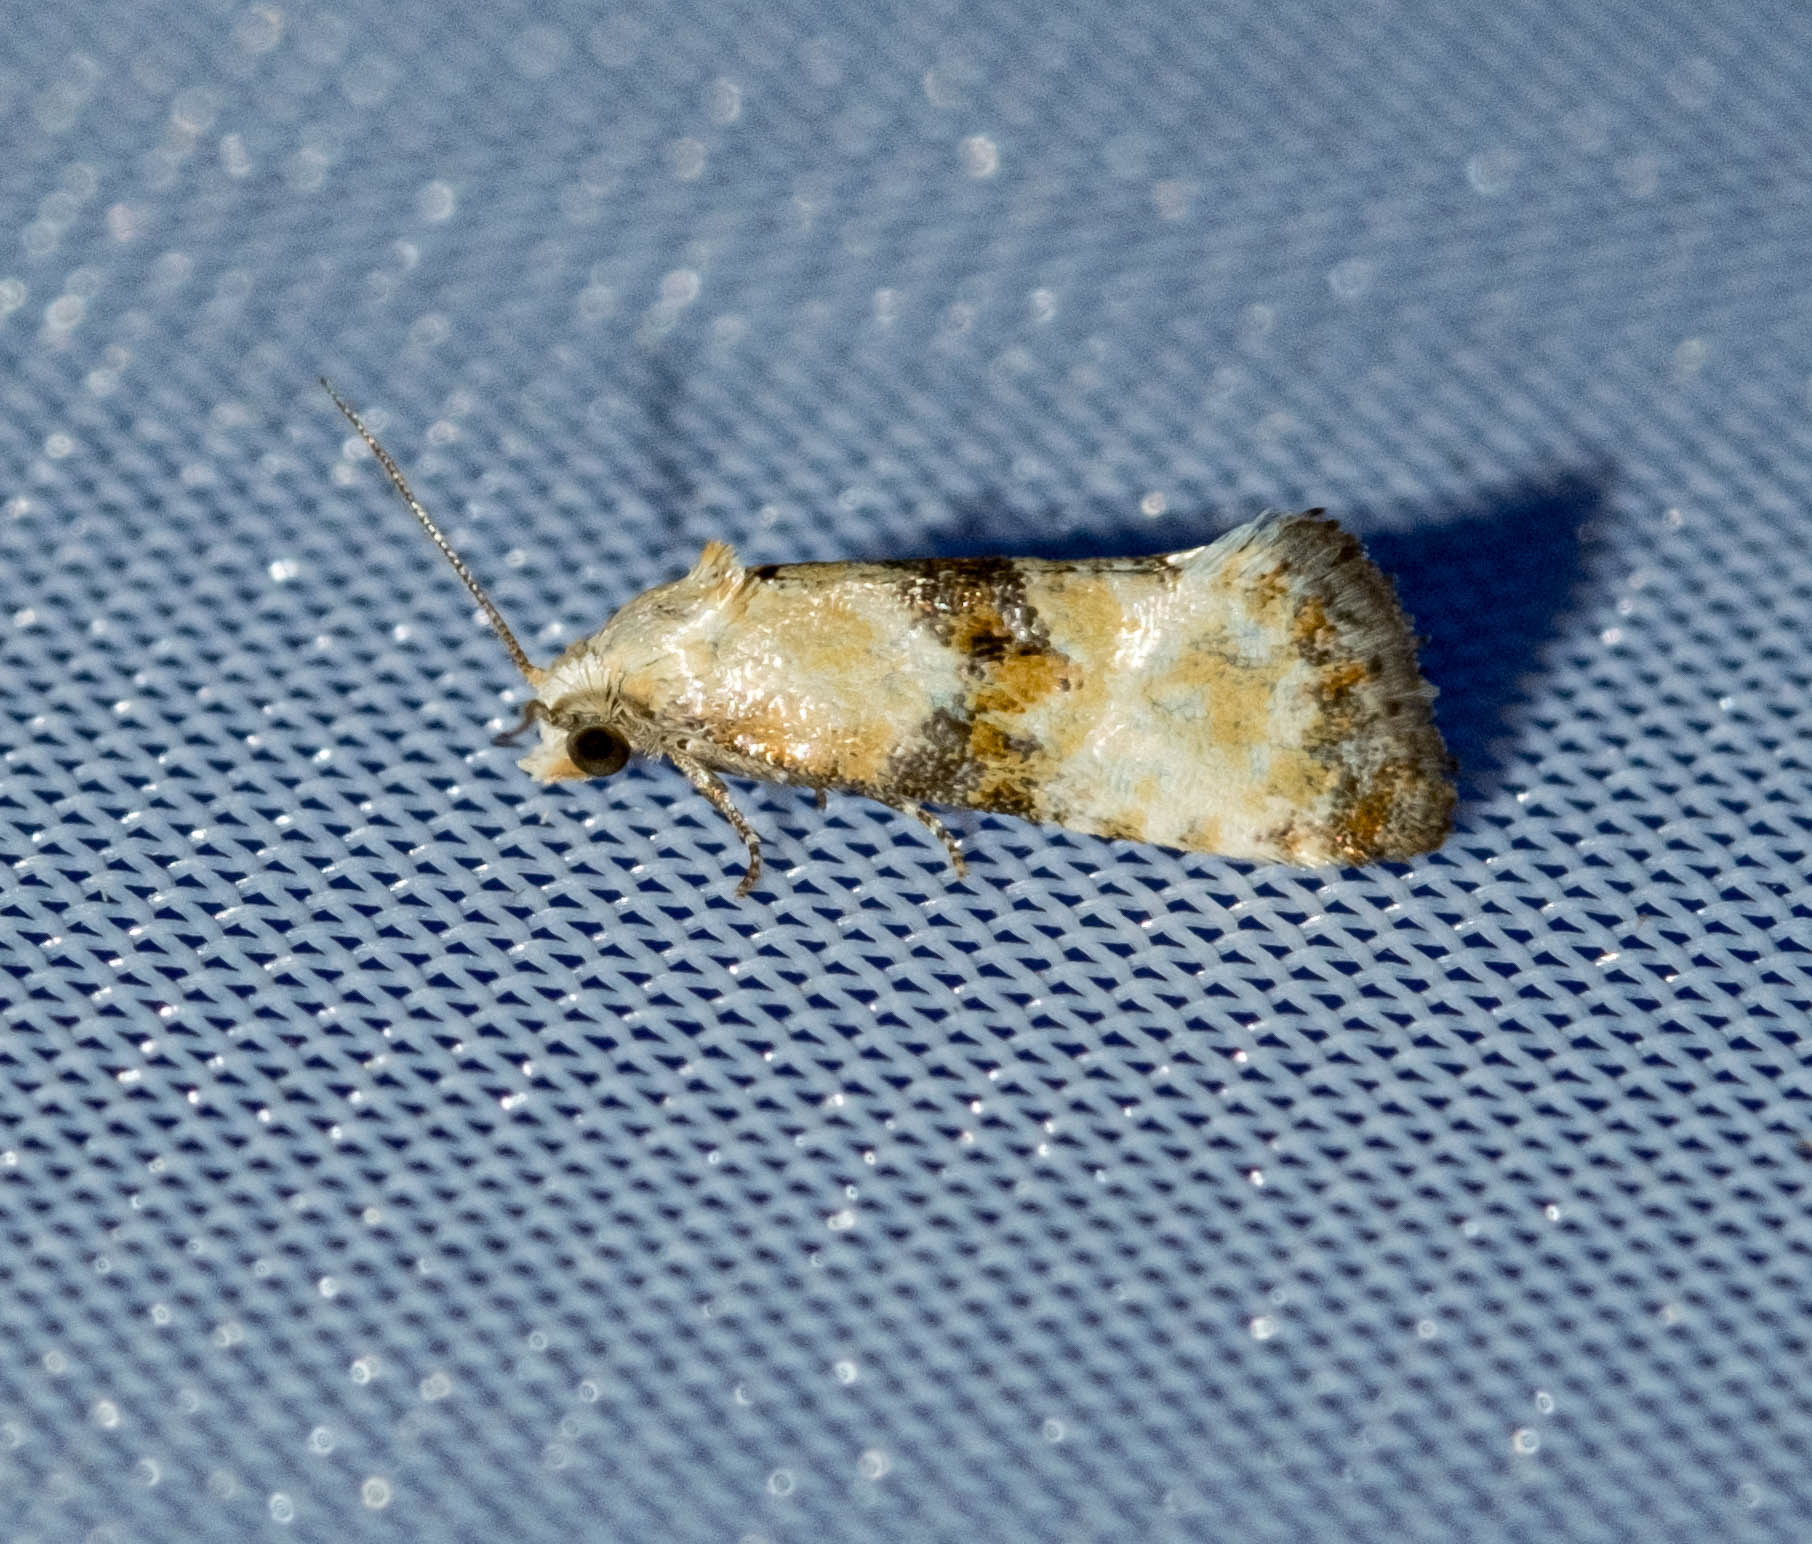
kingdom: Animalia
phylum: Arthropoda
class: Insecta
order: Lepidoptera
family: Tortricidae
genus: Eupoecilia
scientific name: Eupoecilia angustana
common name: Marbled conch
